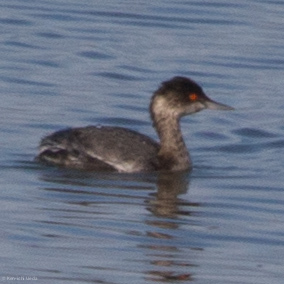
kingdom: Animalia
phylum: Chordata
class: Aves
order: Podicipediformes
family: Podicipedidae
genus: Podiceps
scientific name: Podiceps nigricollis
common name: Black-necked grebe
